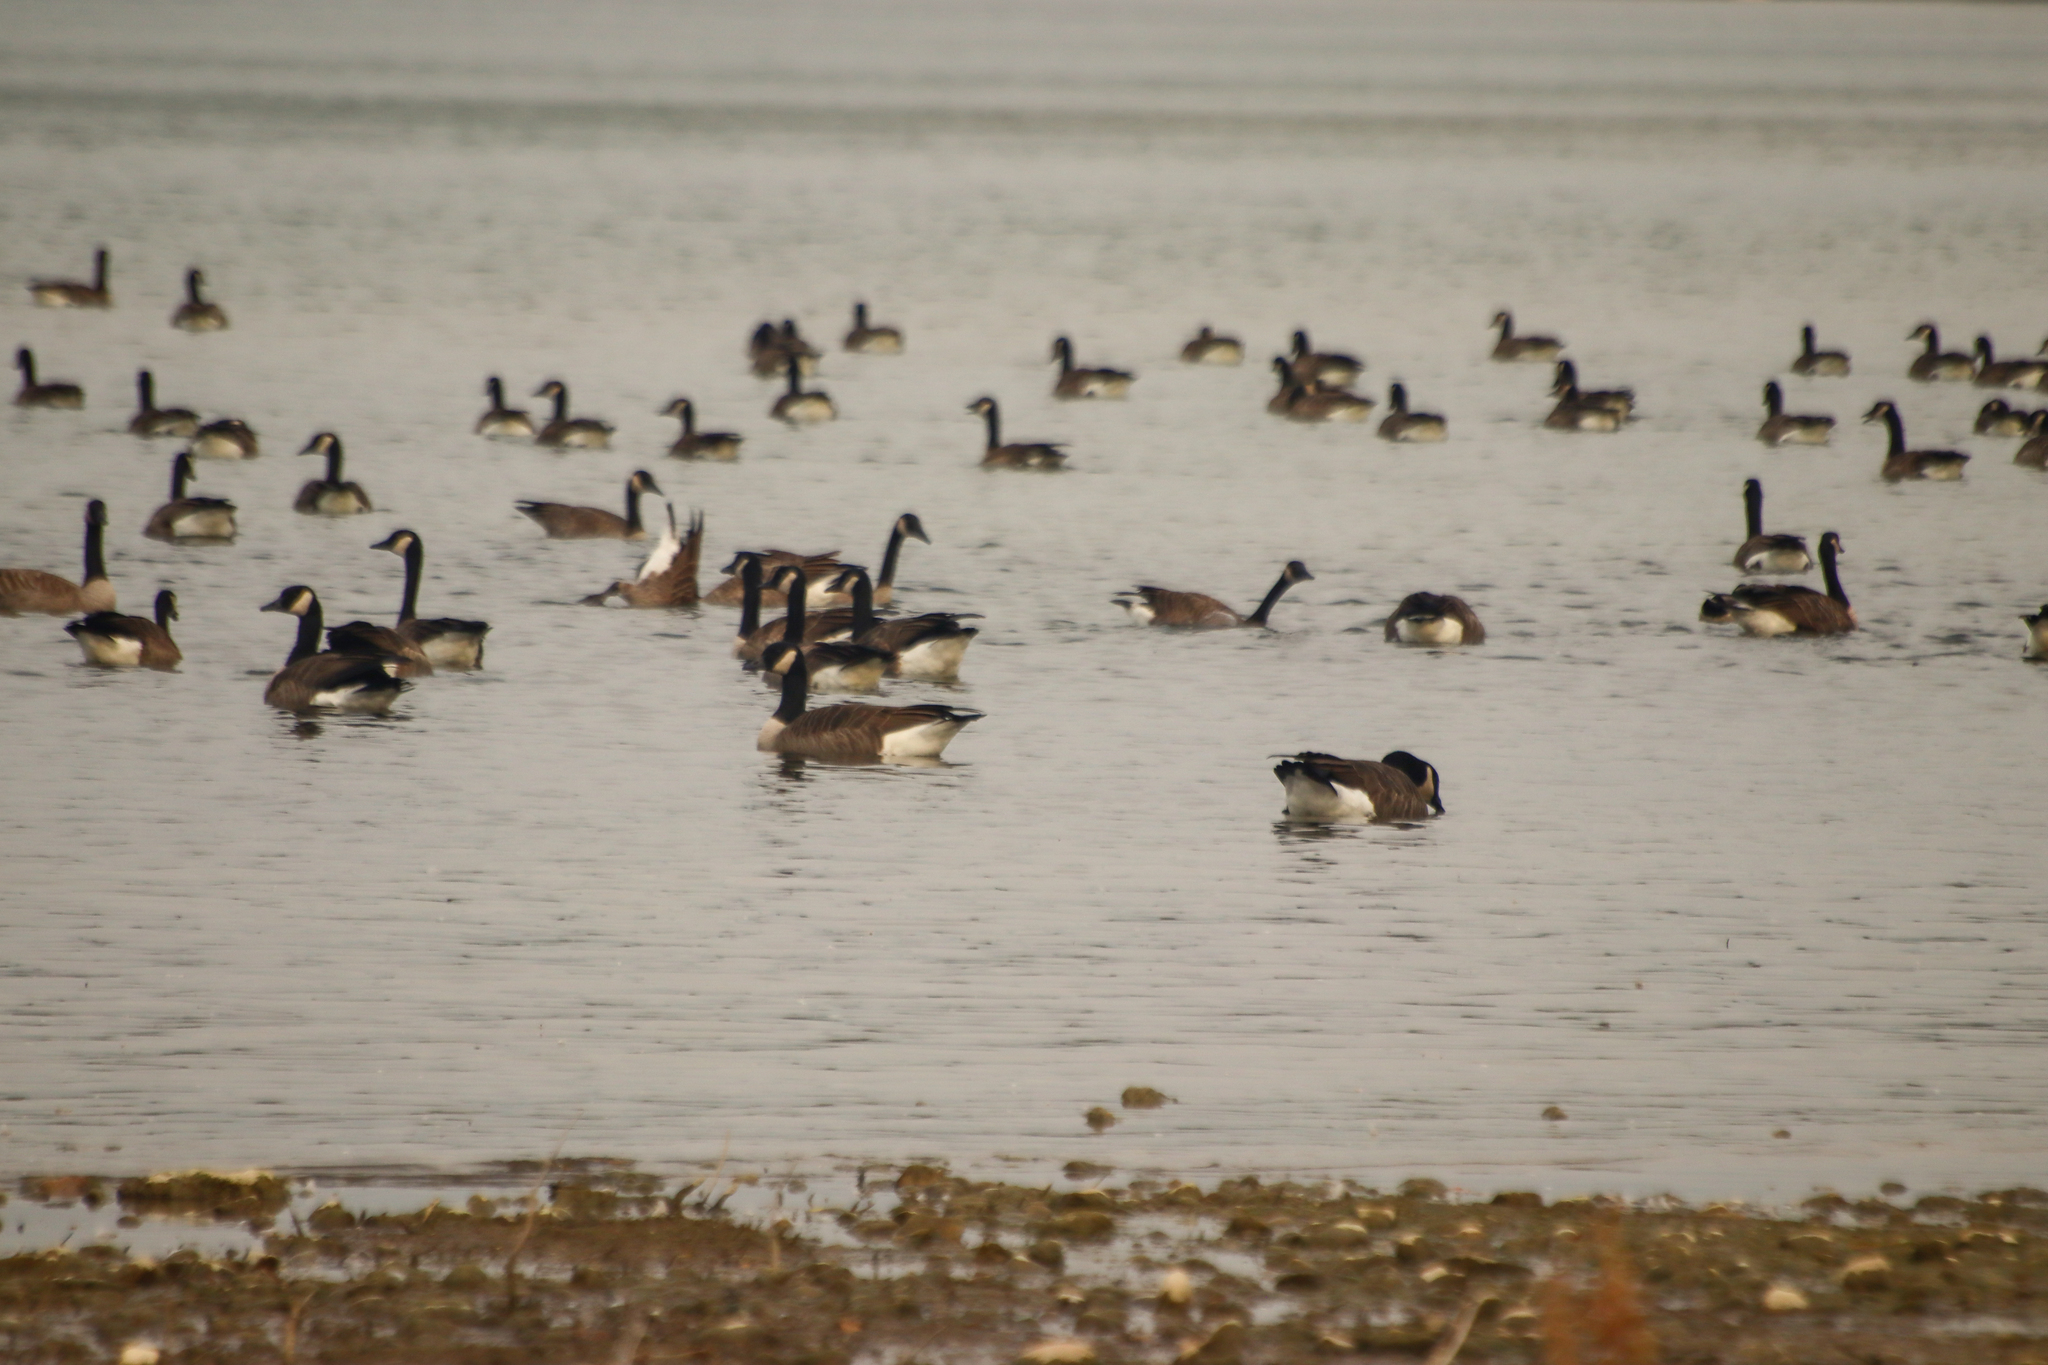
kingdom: Animalia
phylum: Chordata
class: Aves
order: Anseriformes
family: Anatidae
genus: Branta
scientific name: Branta canadensis
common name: Canada goose
